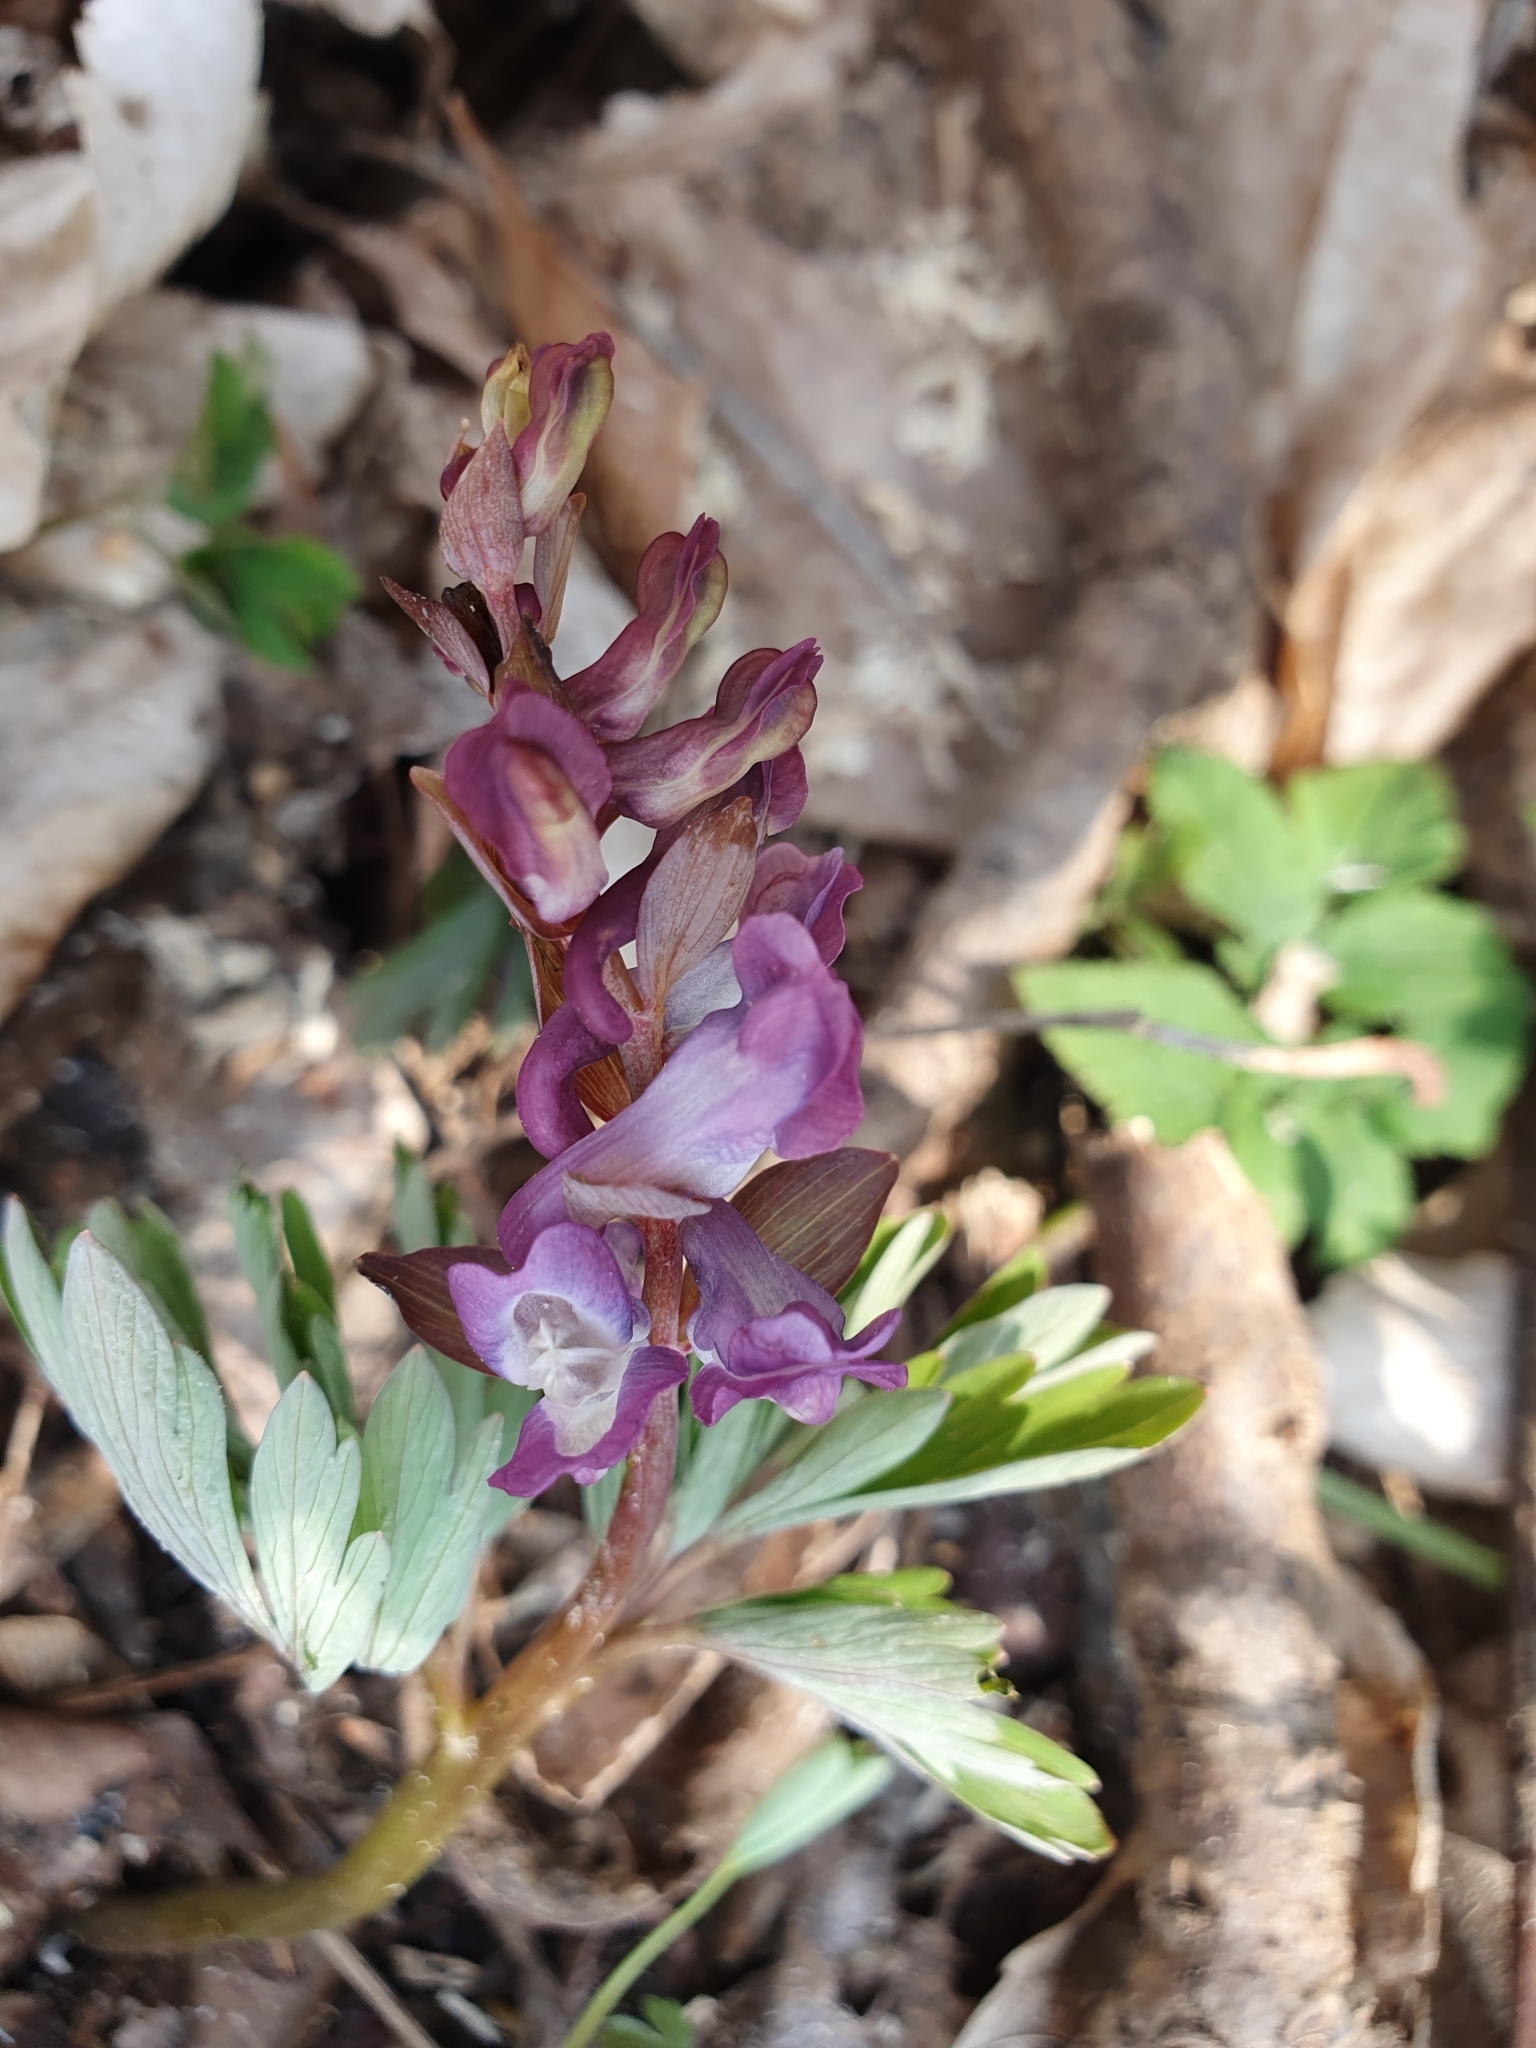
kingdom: Plantae
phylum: Tracheophyta
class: Magnoliopsida
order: Ranunculales
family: Papaveraceae
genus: Corydalis
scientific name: Corydalis cava
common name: Hollowroot
